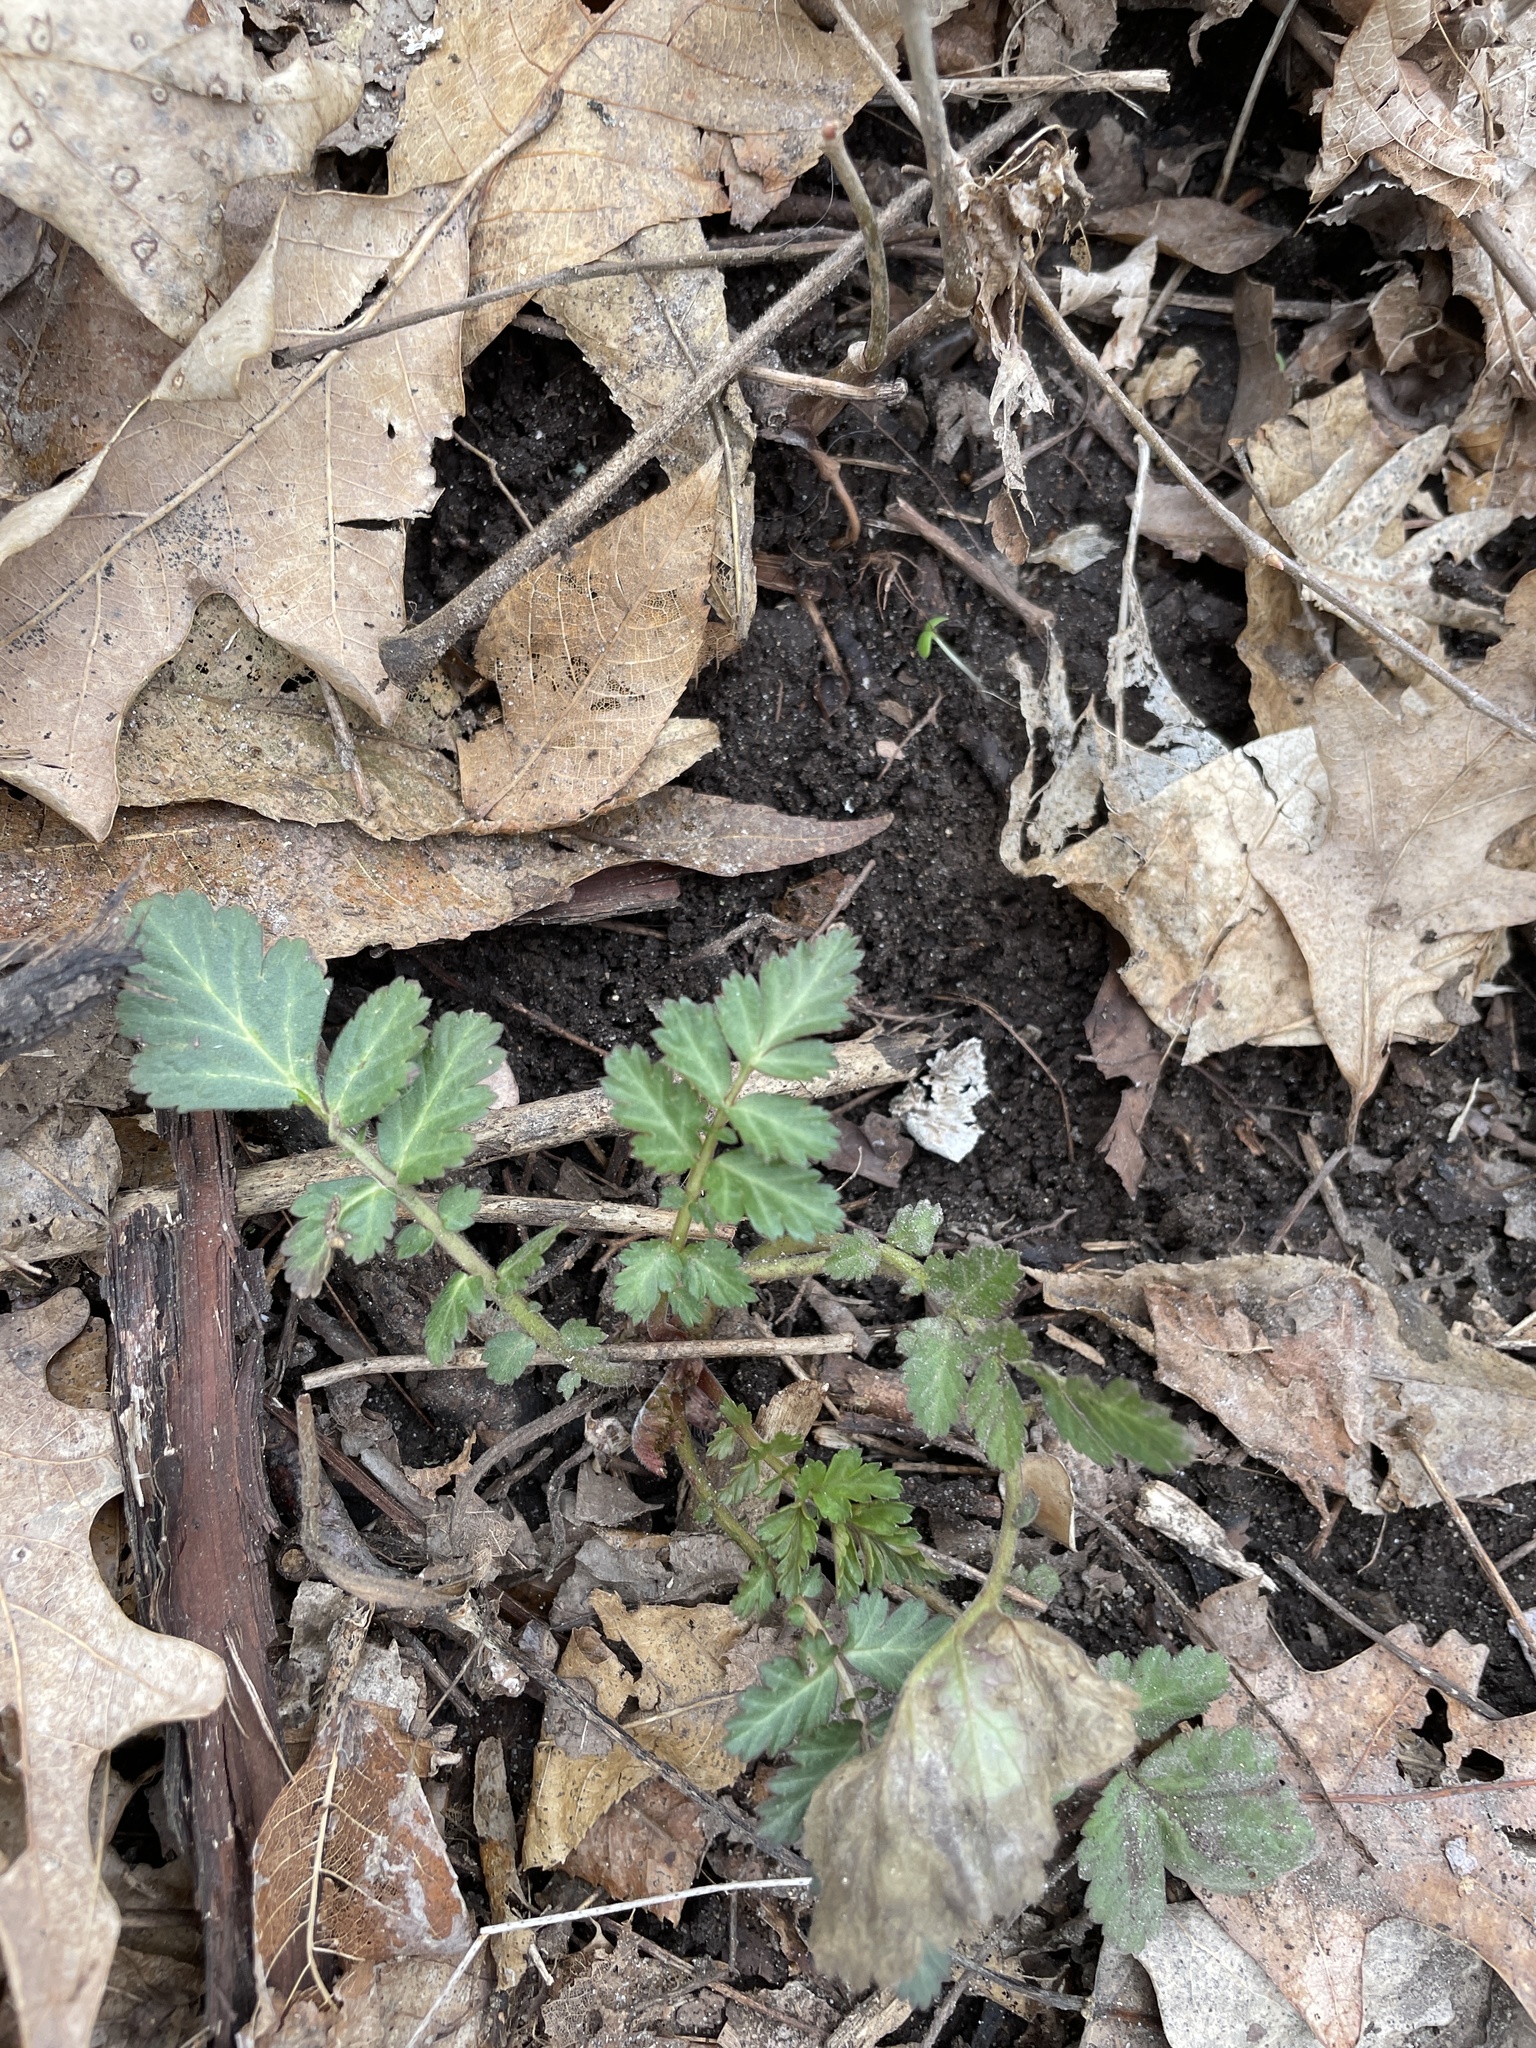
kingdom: Plantae
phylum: Tracheophyta
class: Magnoliopsida
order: Rosales
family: Rosaceae
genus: Geum
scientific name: Geum canadense
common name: White avens
